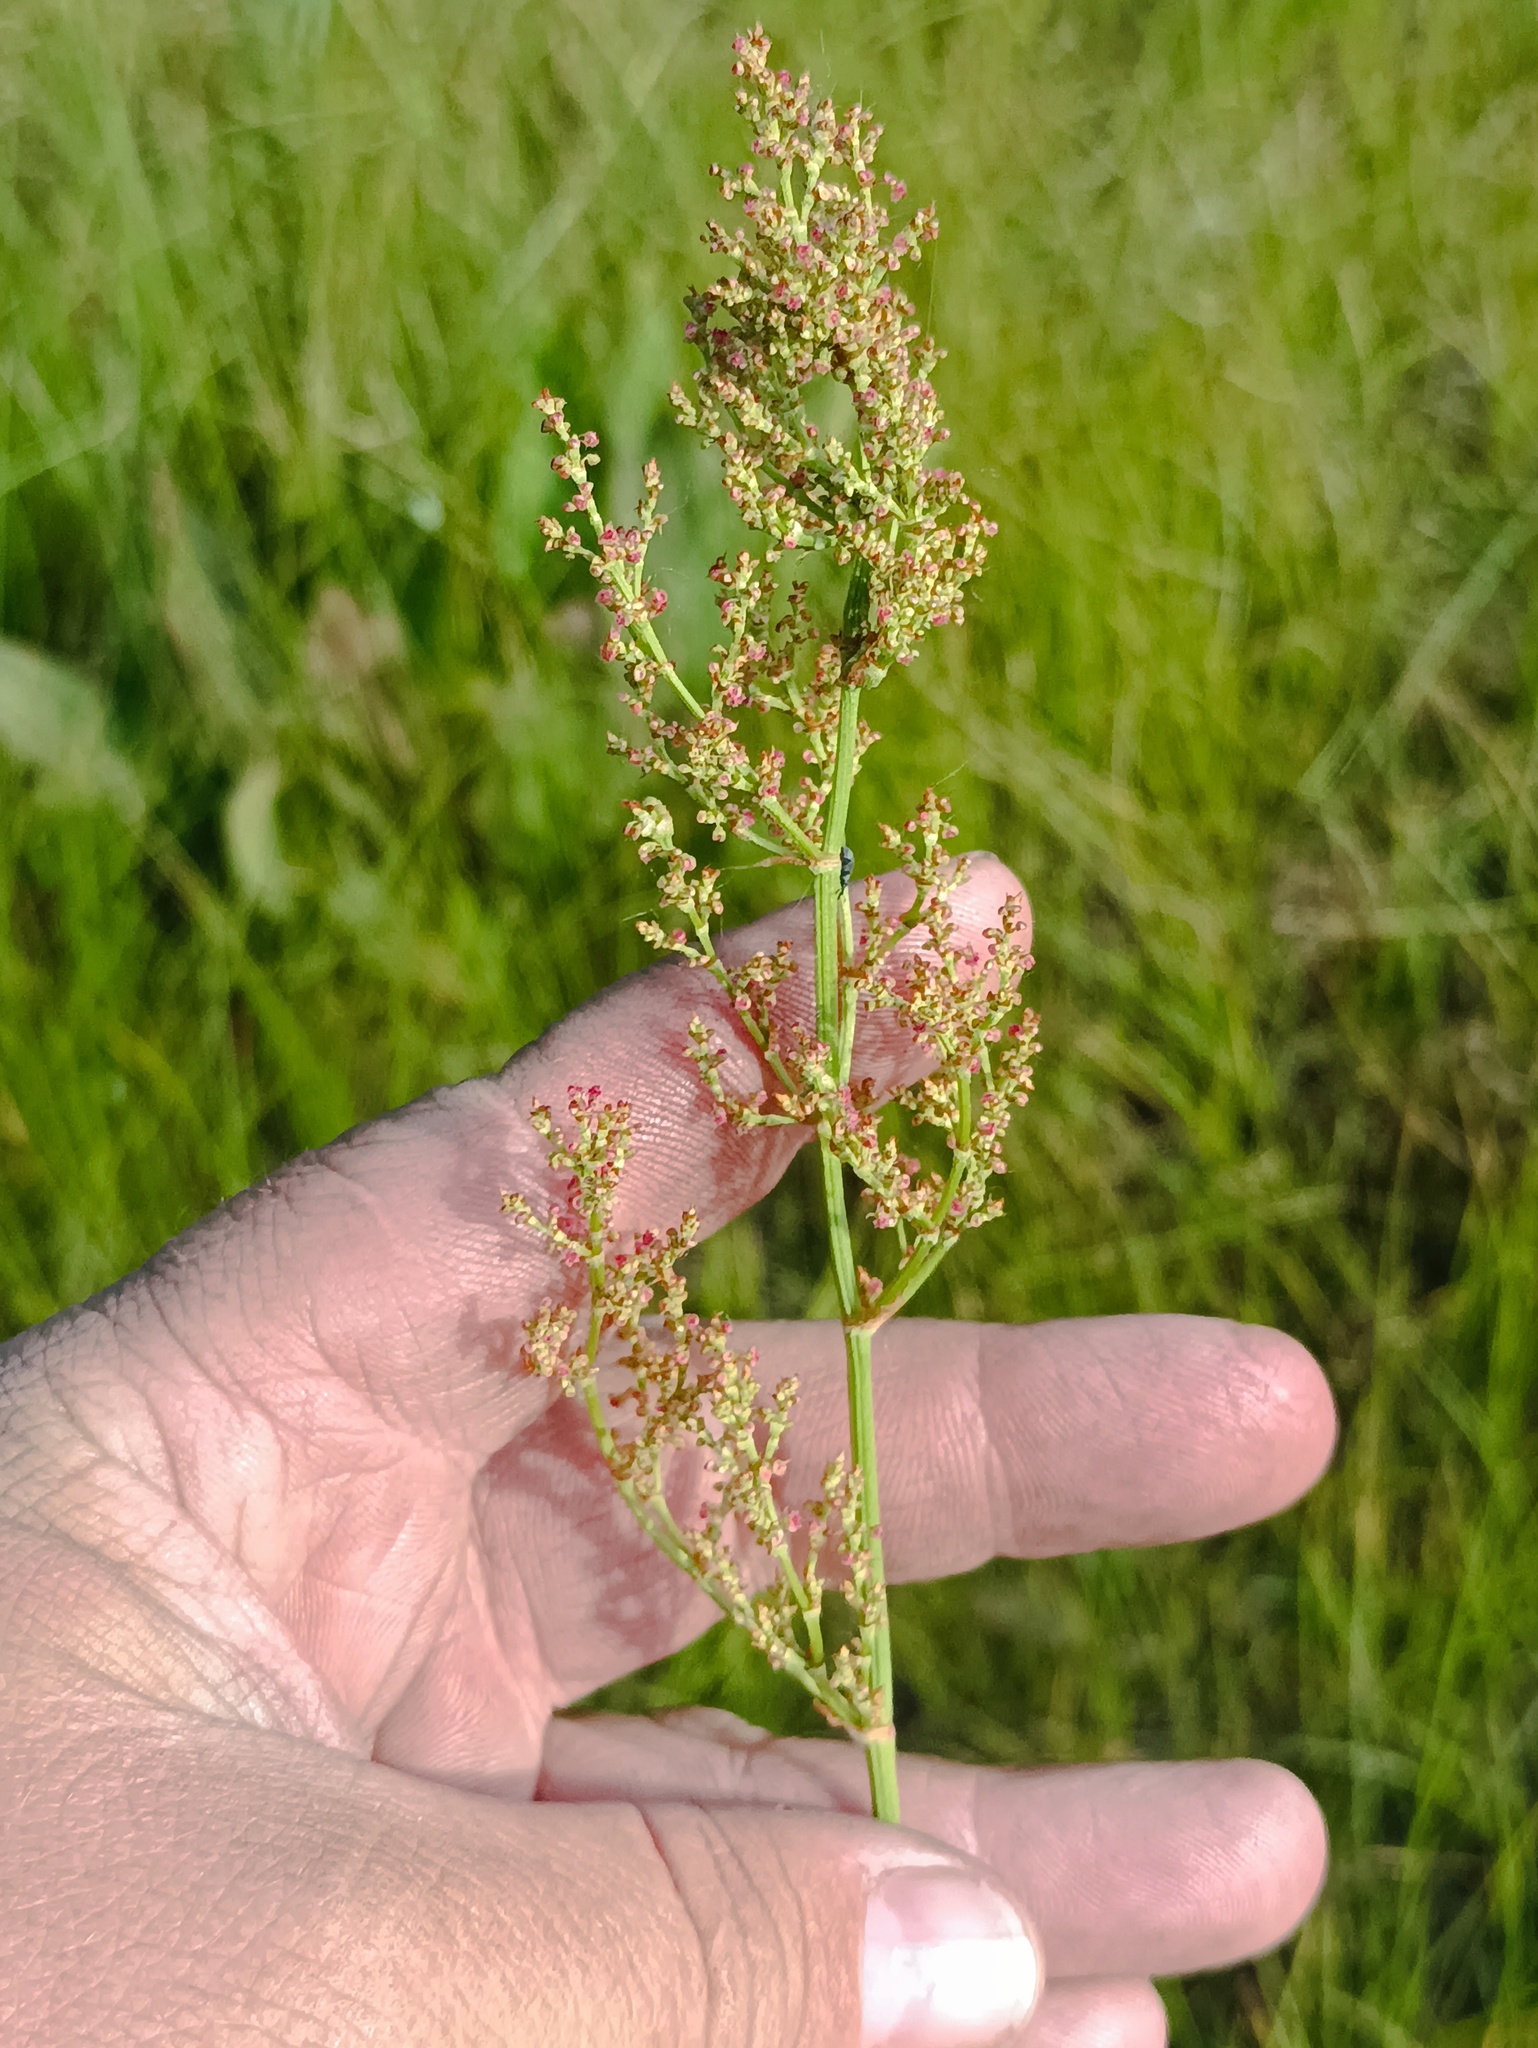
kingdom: Plantae
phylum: Tracheophyta
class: Magnoliopsida
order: Caryophyllales
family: Polygonaceae
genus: Rumex
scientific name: Rumex thyrsiflorus
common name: Garden sorrel
